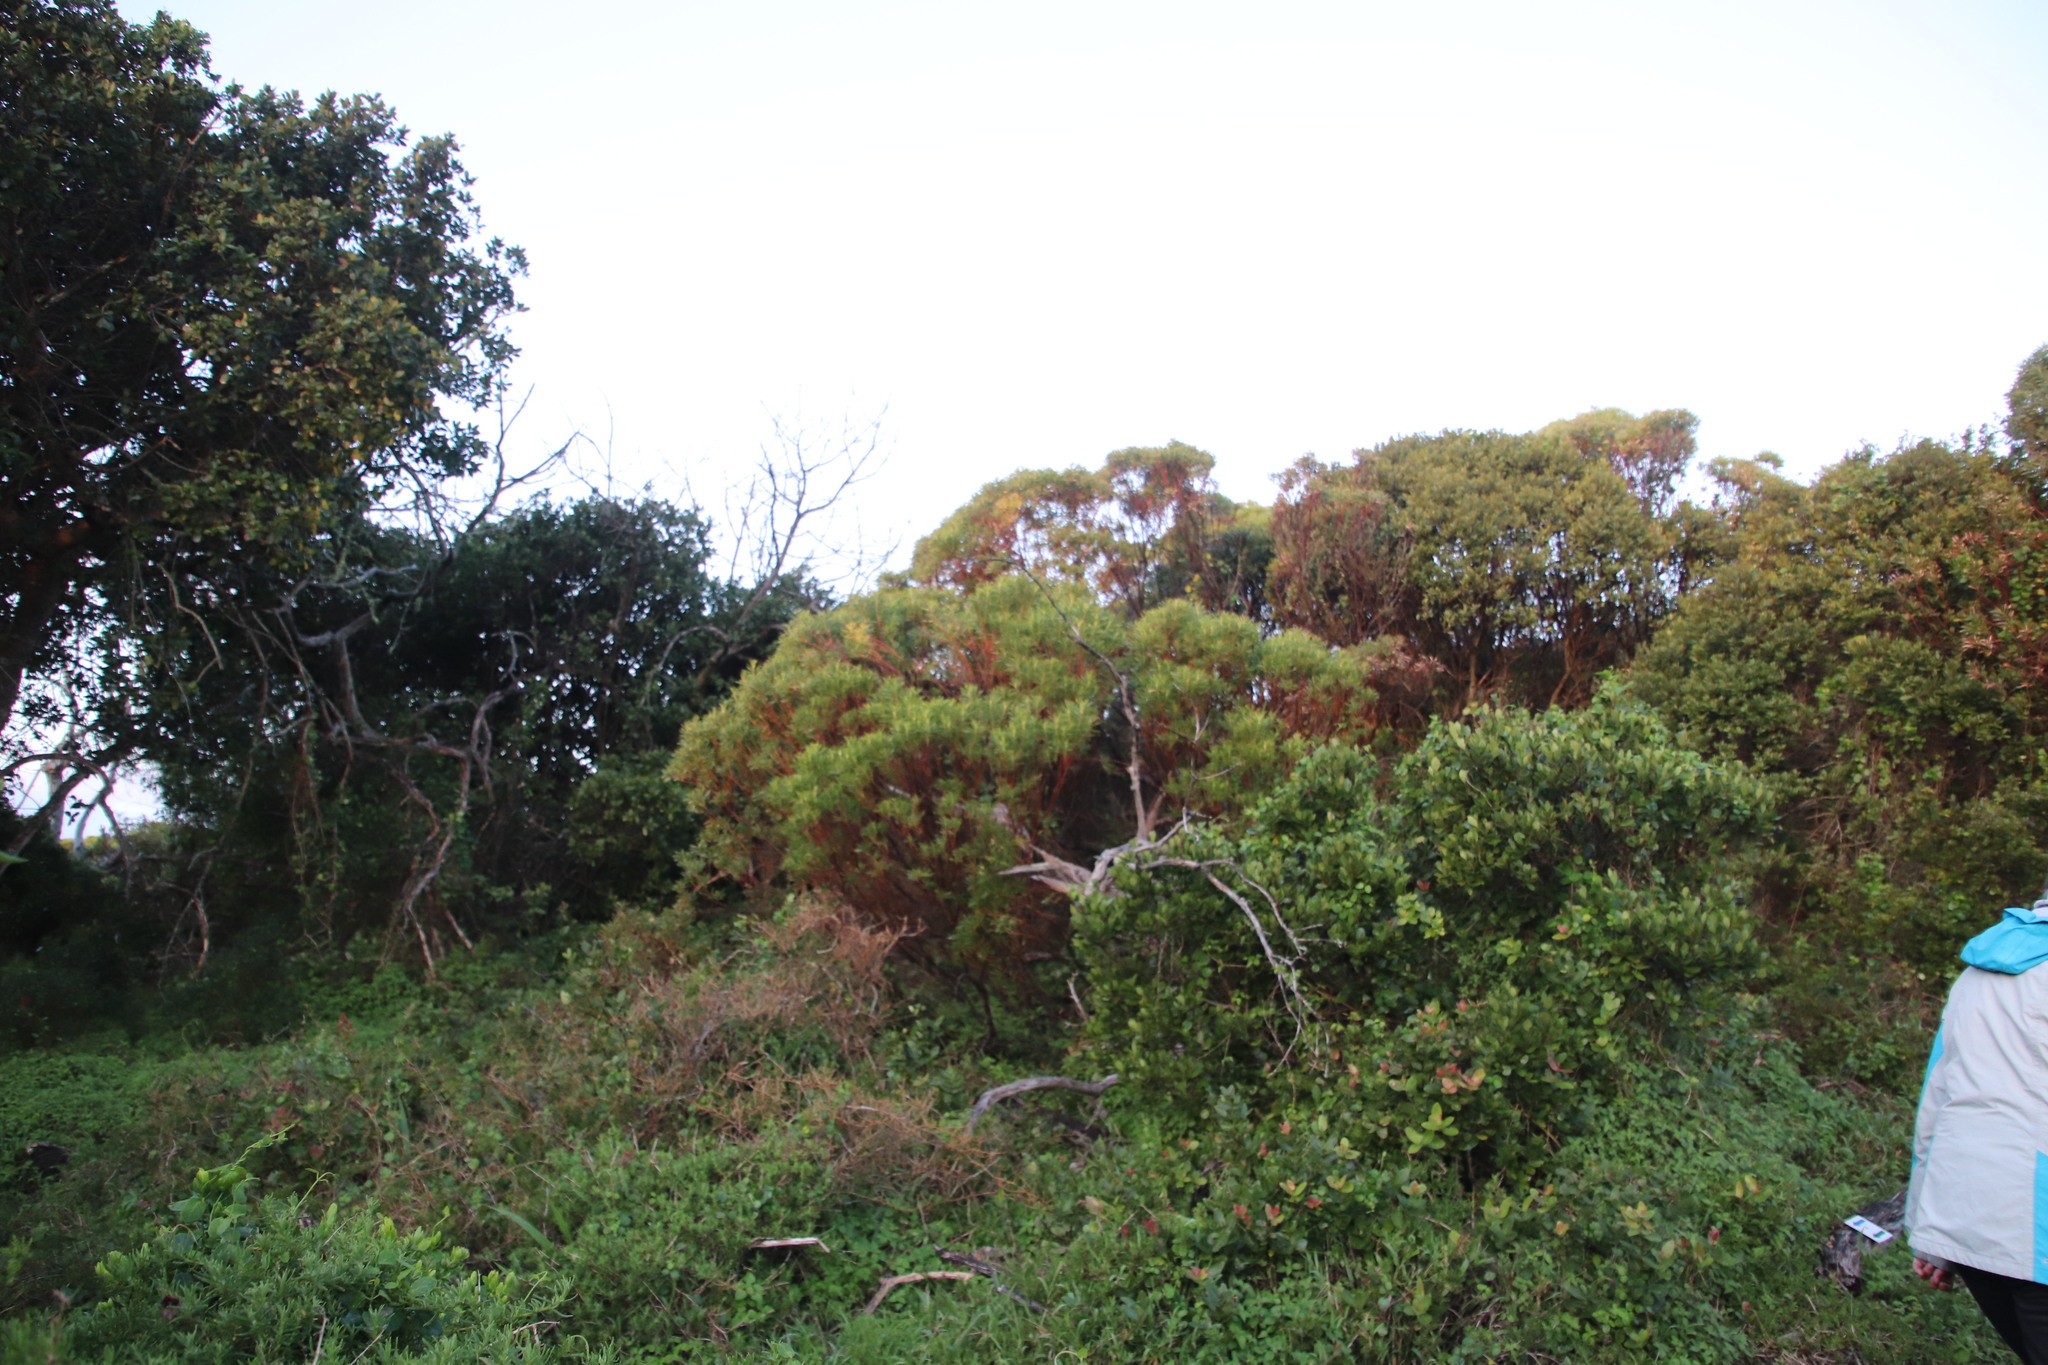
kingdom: Plantae
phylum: Tracheophyta
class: Magnoliopsida
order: Proteales
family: Proteaceae
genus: Leucadendron
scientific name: Leucadendron coniferum
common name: Dune conebush
